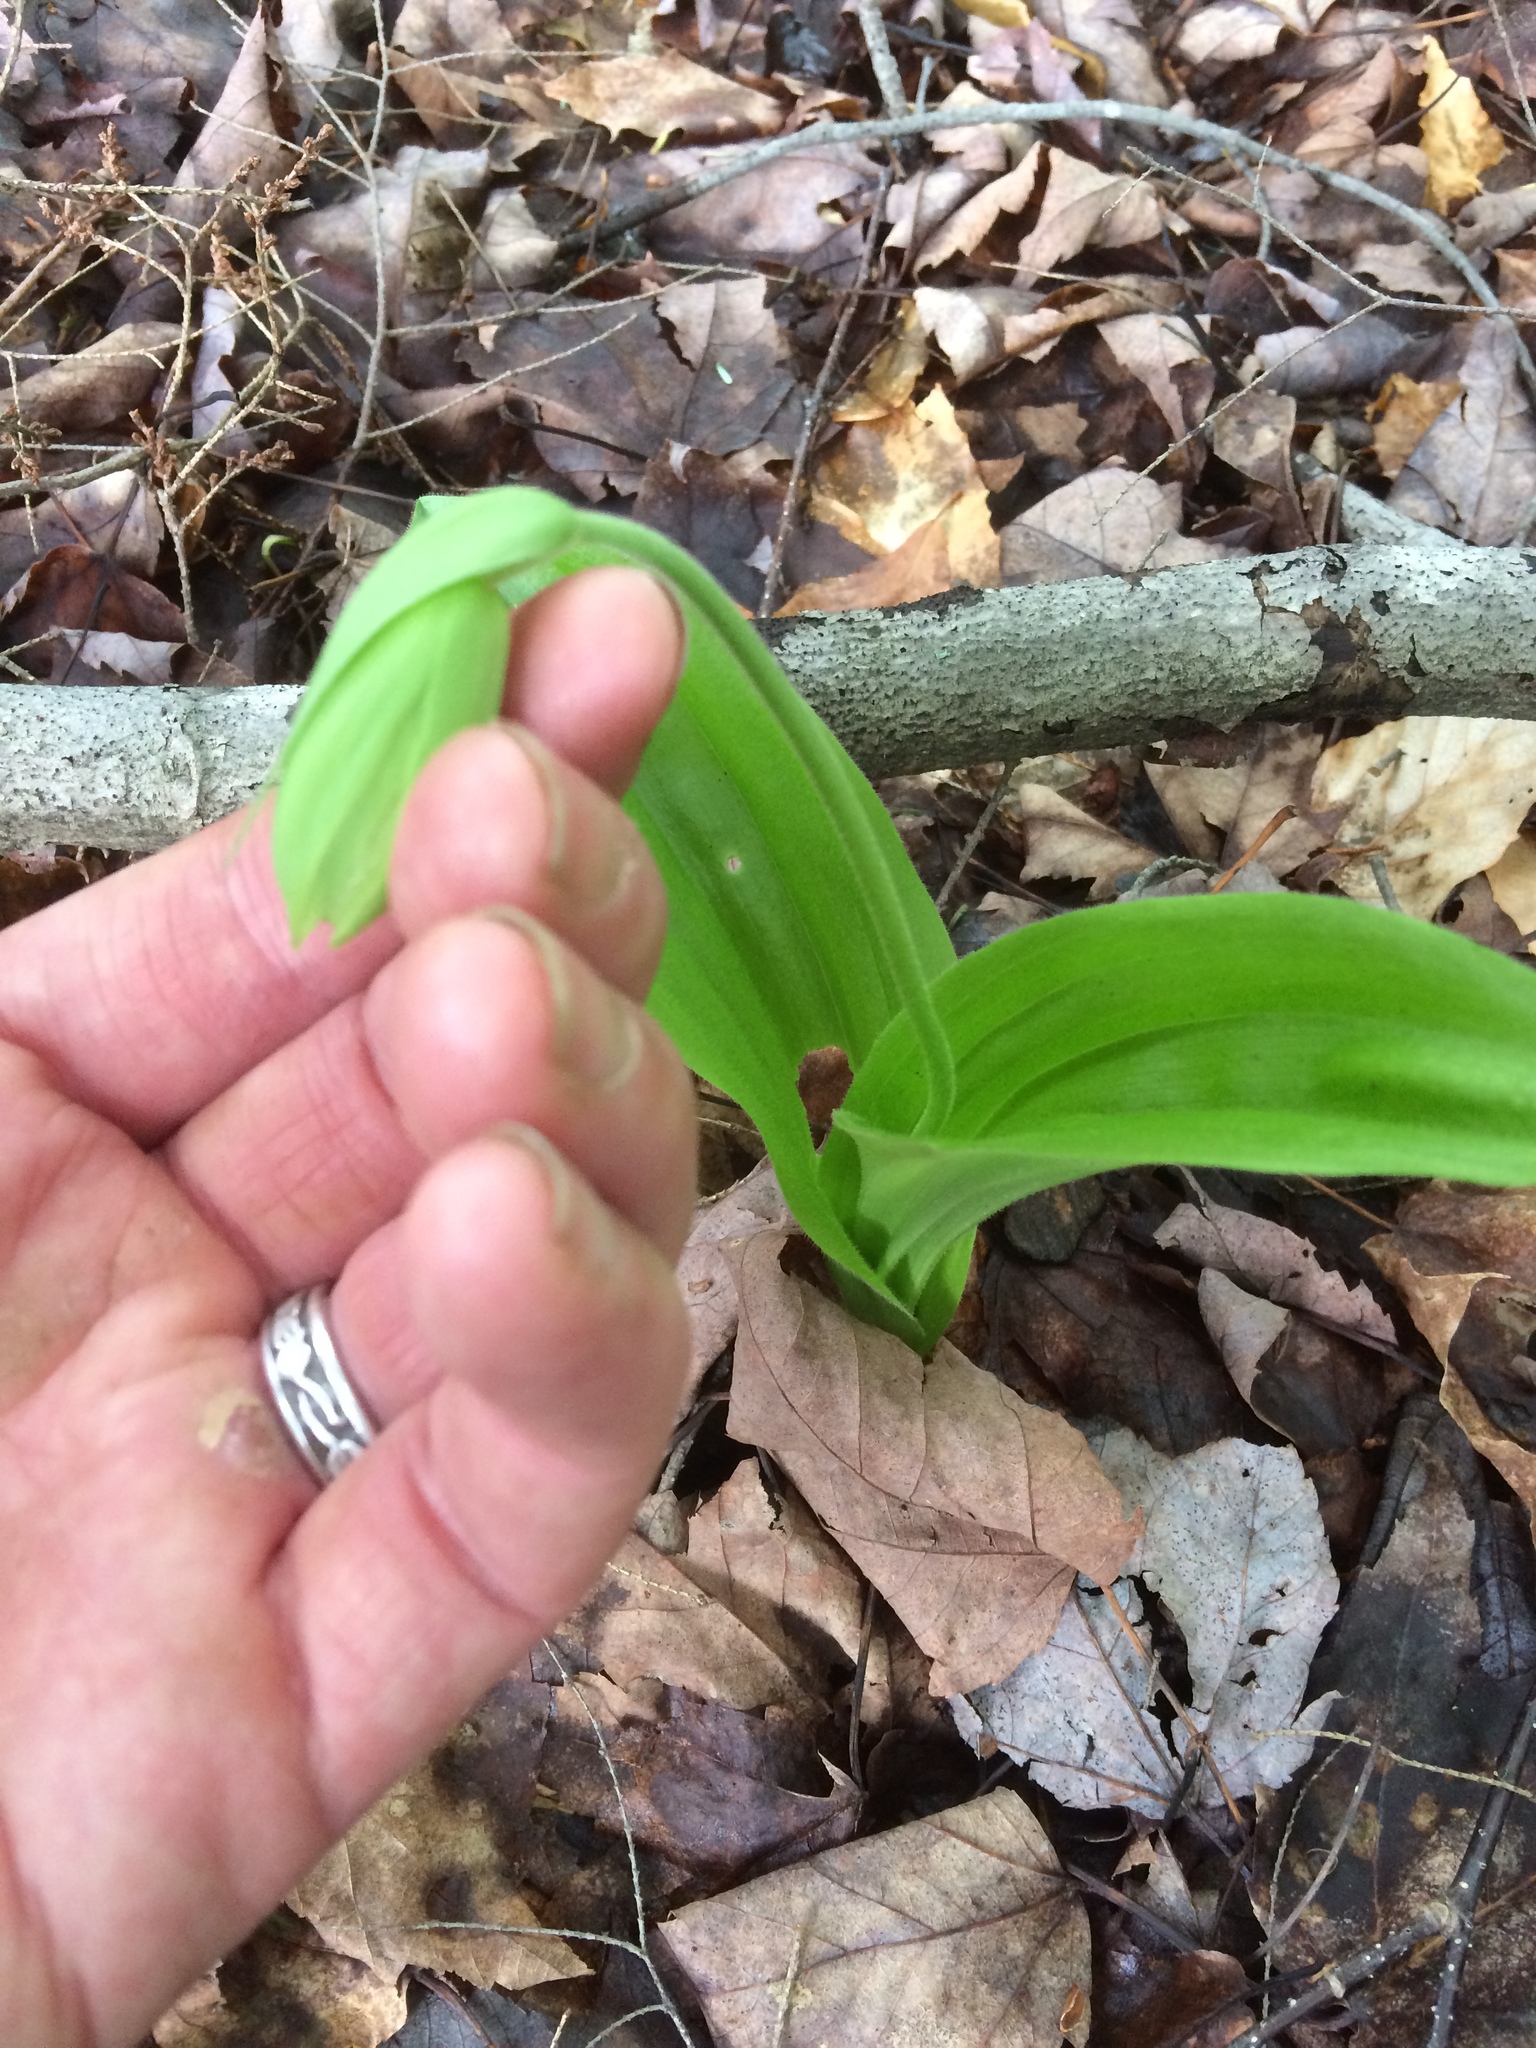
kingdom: Plantae
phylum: Tracheophyta
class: Liliopsida
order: Asparagales
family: Orchidaceae
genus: Cypripedium
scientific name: Cypripedium acaule
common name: Pink lady's-slipper
